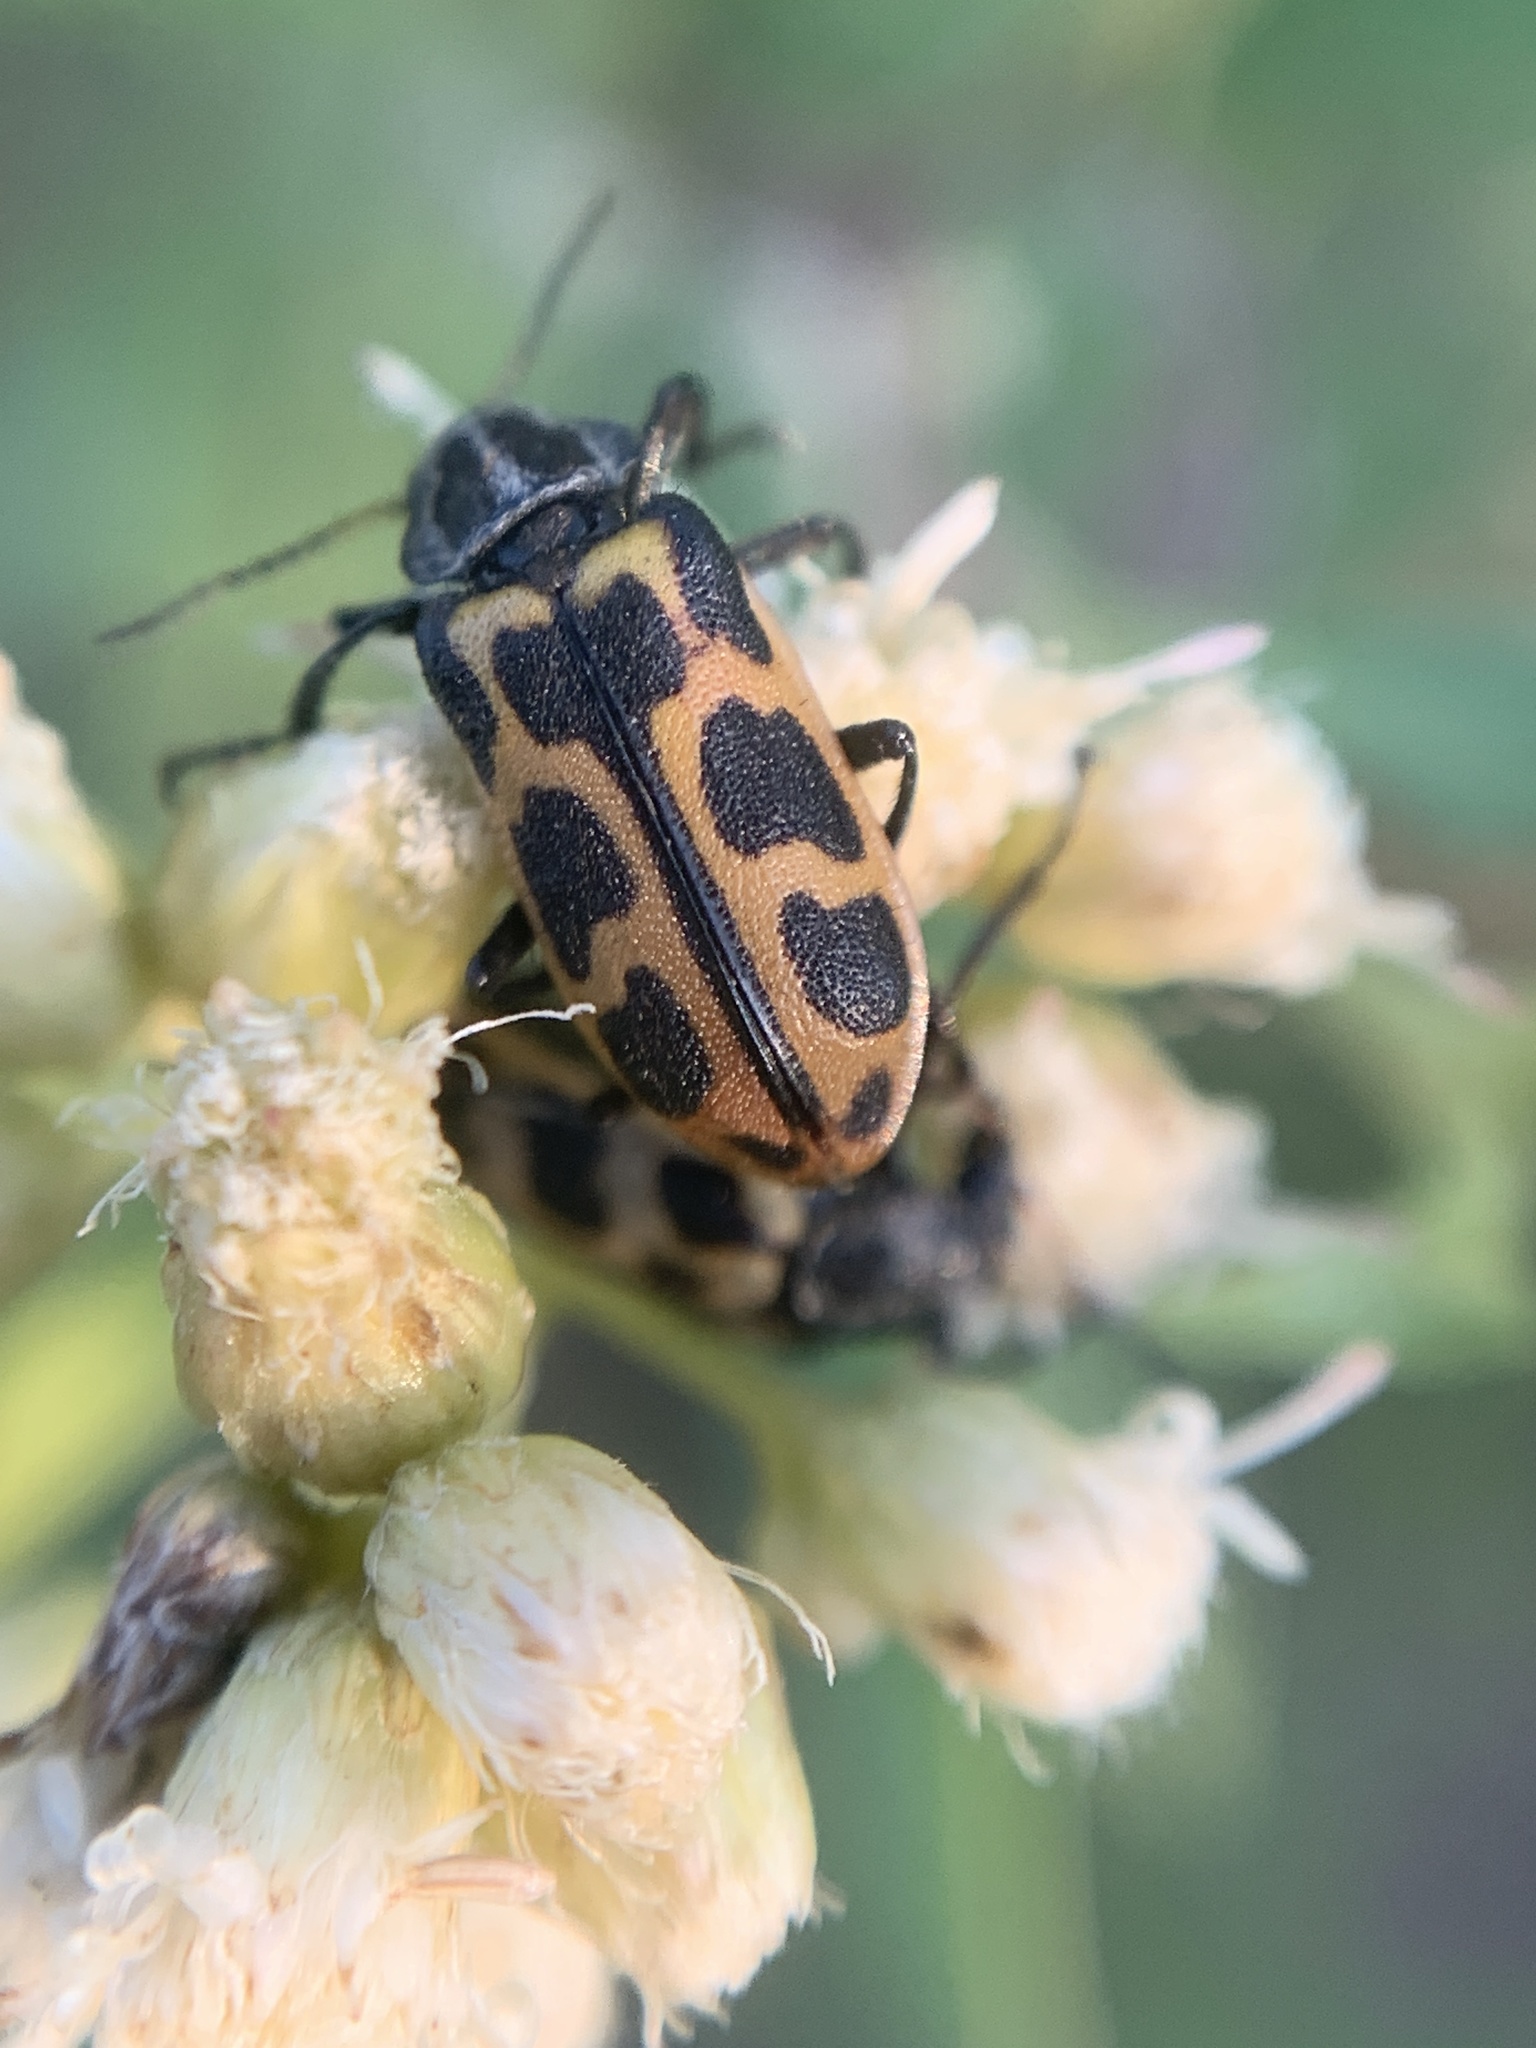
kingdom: Animalia
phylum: Arthropoda
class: Insecta
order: Coleoptera
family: Melyridae
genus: Astylus
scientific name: Astylus atromaculatus
